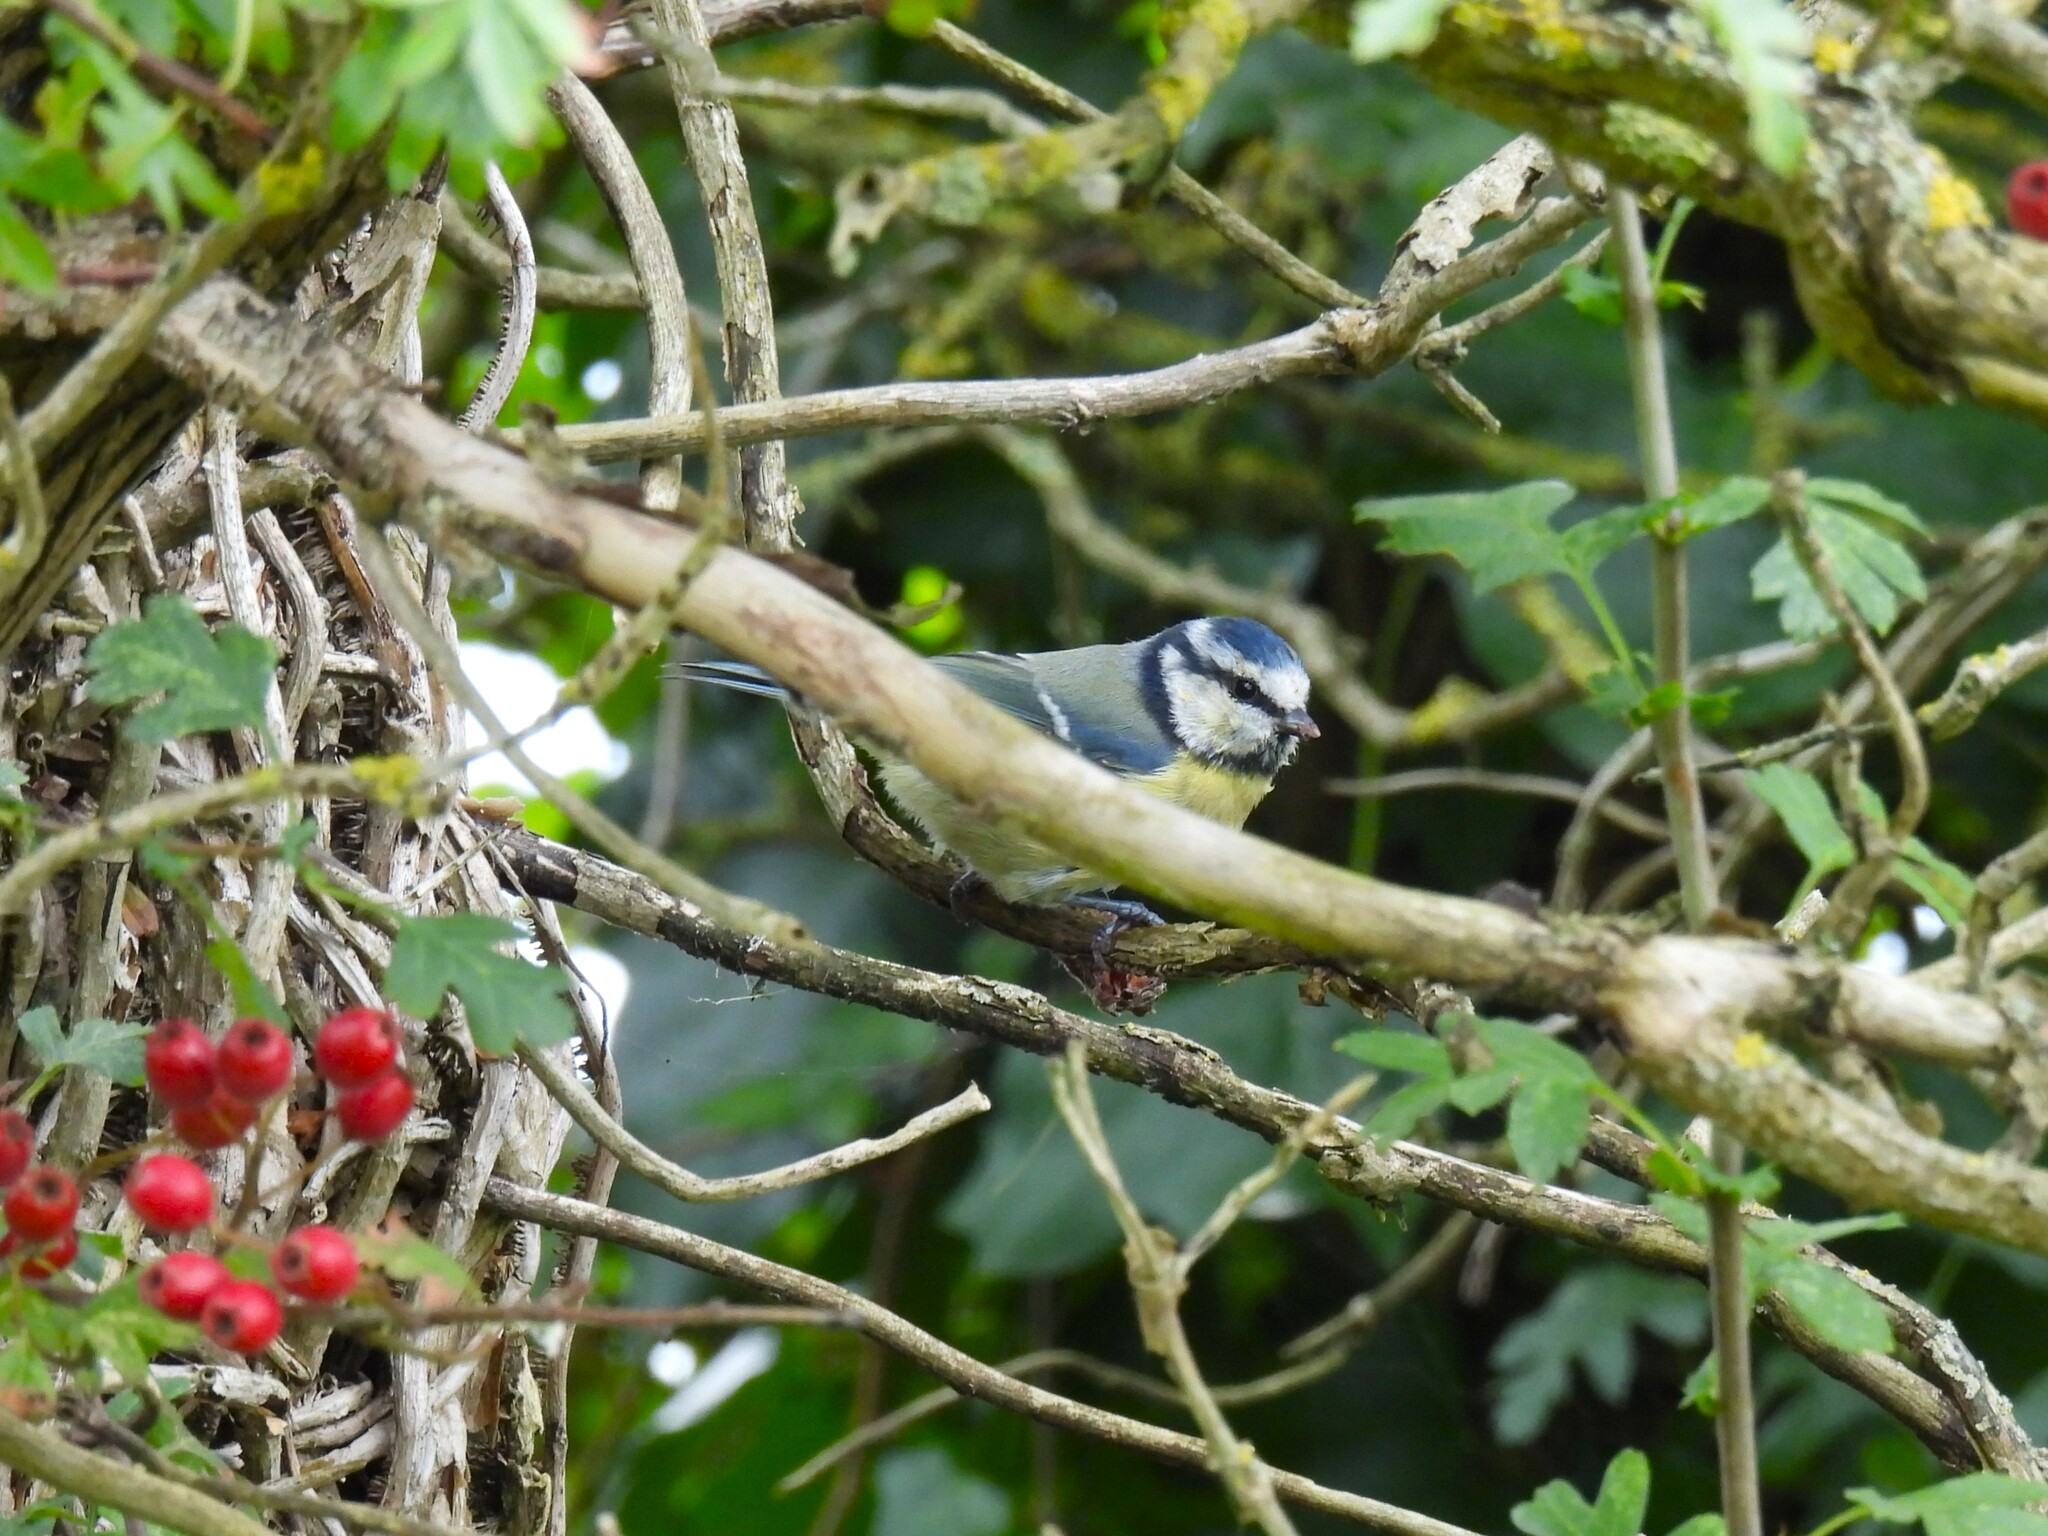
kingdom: Animalia
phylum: Chordata
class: Aves
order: Passeriformes
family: Paridae
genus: Cyanistes
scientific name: Cyanistes caeruleus
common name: Eurasian blue tit
